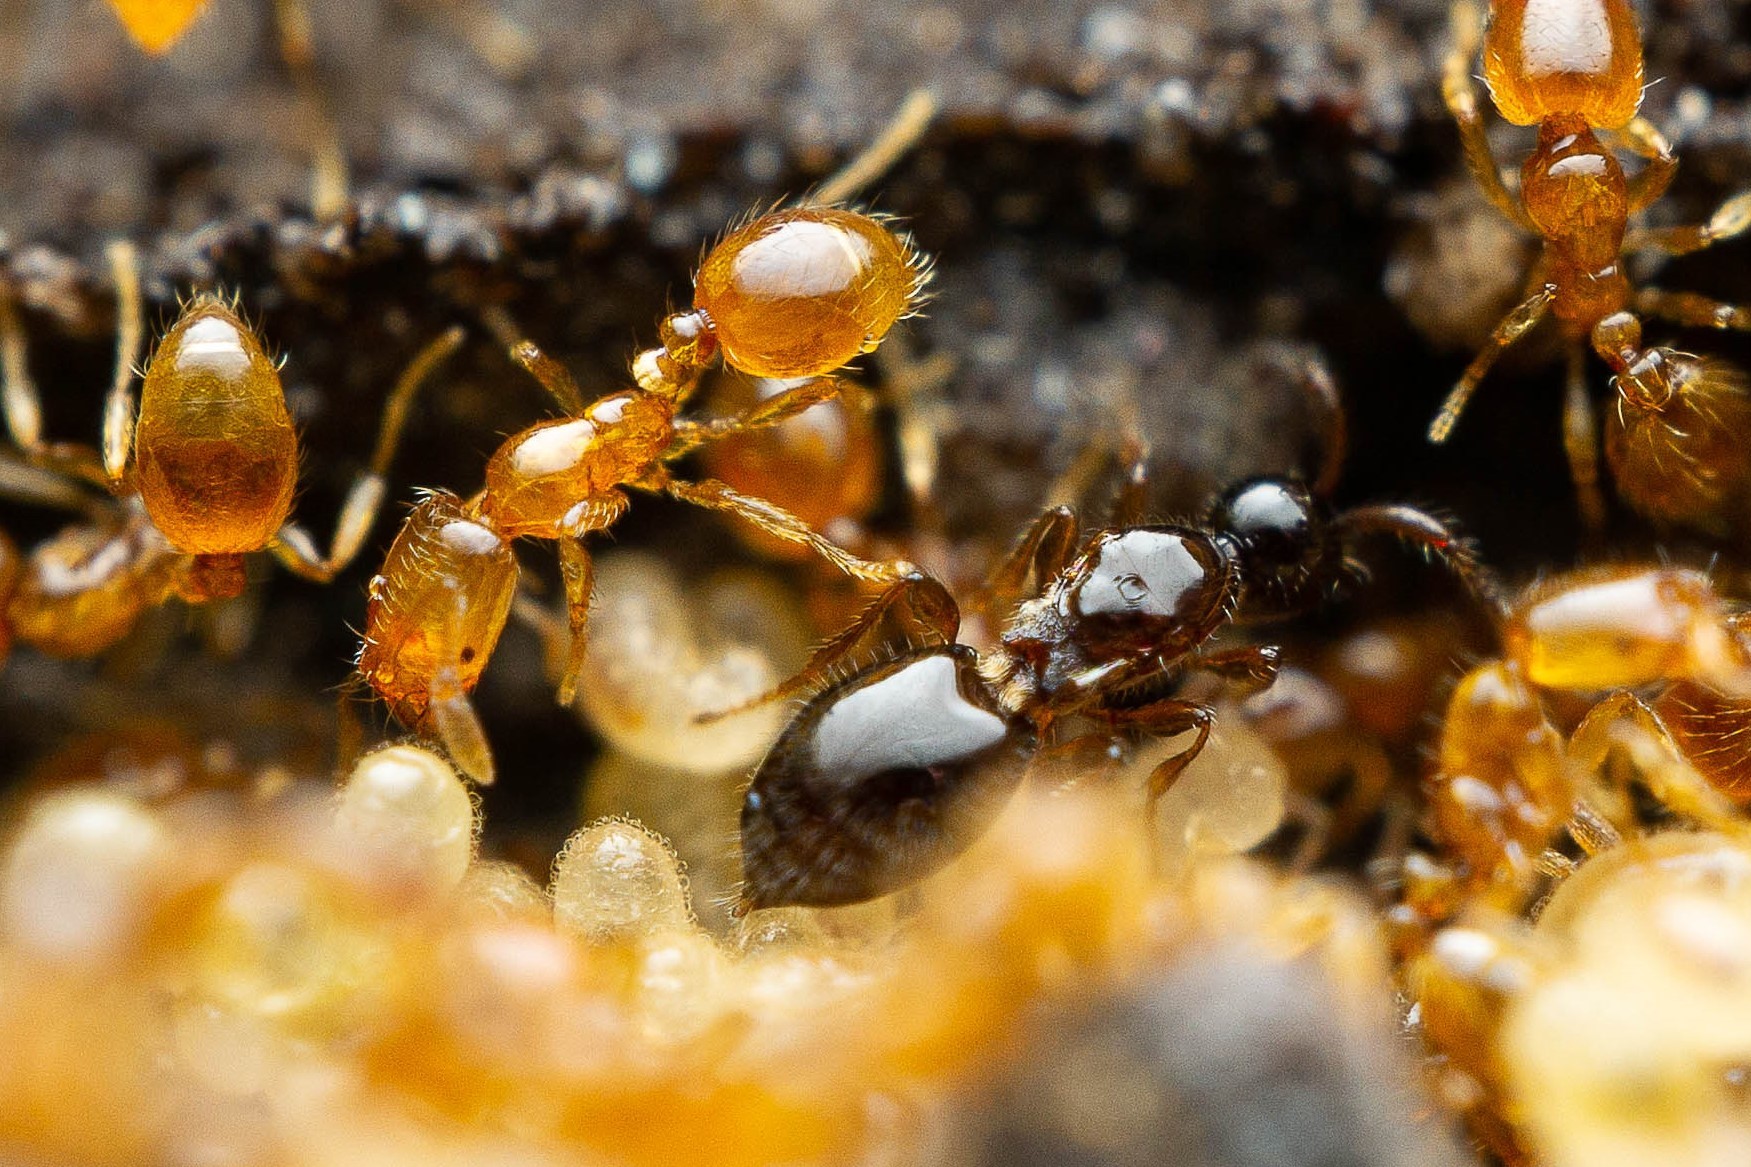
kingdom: Animalia
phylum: Arthropoda
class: Insecta
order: Hymenoptera
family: Diapriidae
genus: Auxopaedeutes
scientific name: Auxopaedeutes
